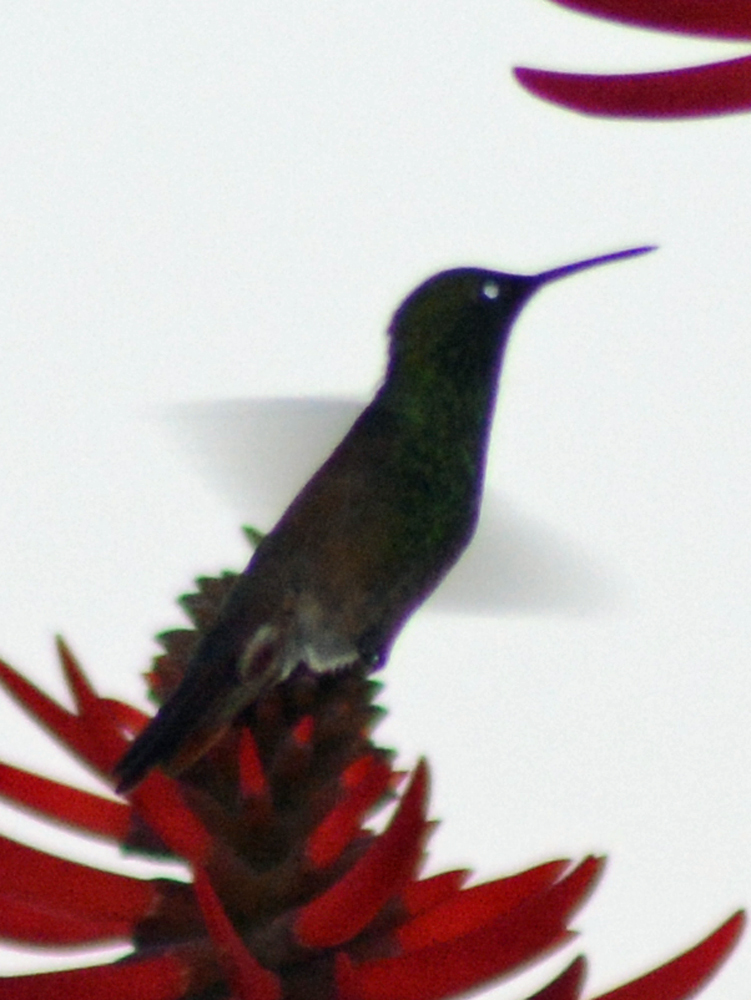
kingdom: Animalia
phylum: Chordata
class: Aves
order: Apodiformes
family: Trochilidae
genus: Saucerottia
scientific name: Saucerottia beryllina
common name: Berylline hummingbird
